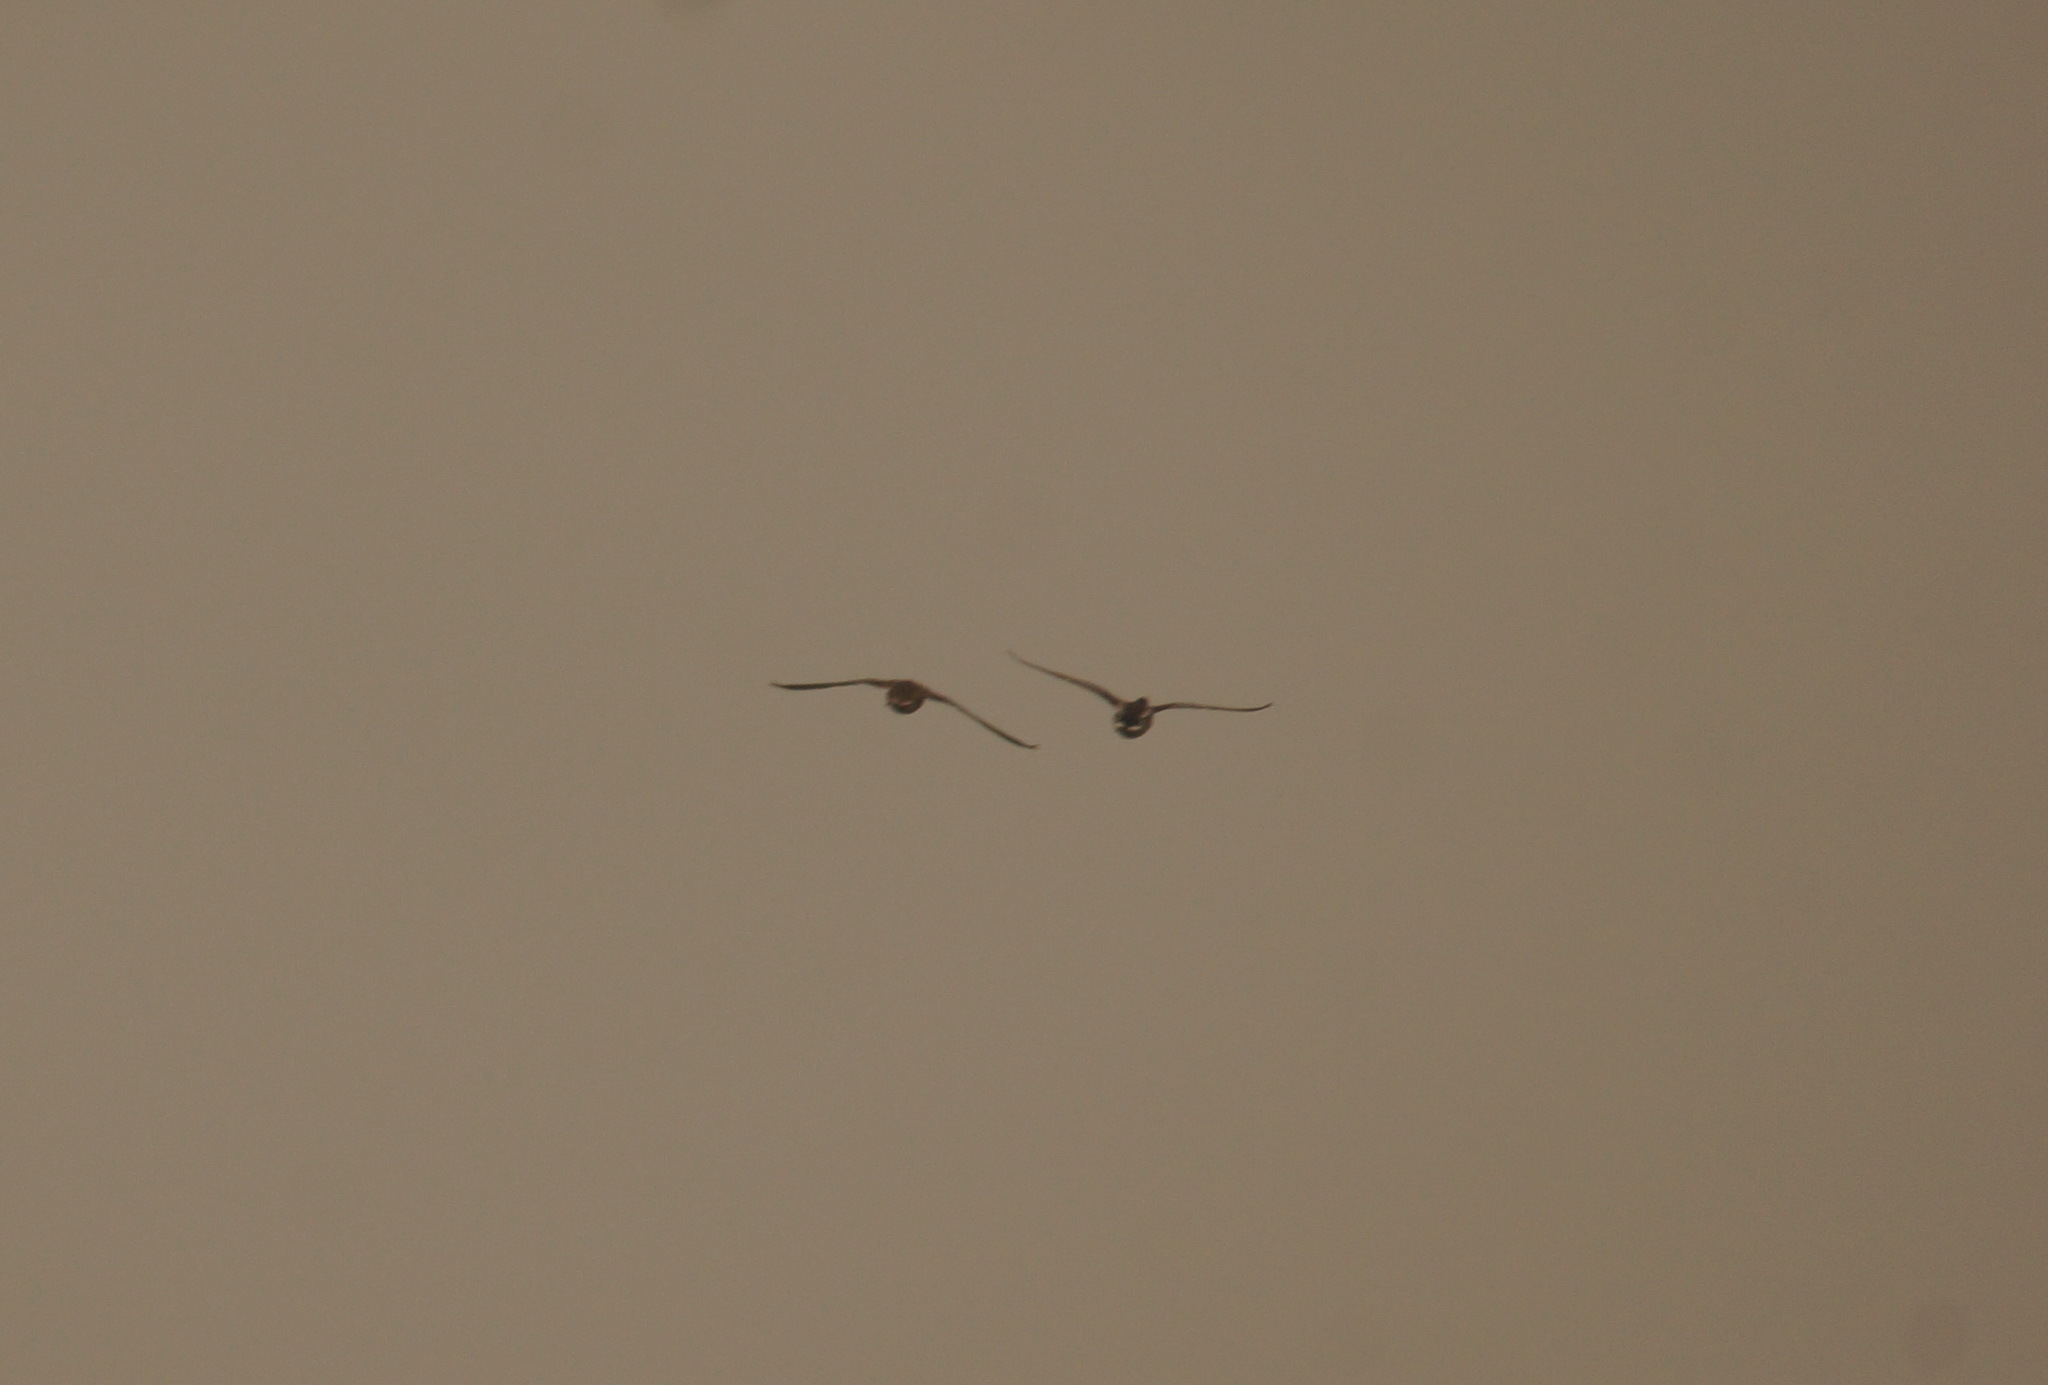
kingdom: Animalia
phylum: Chordata
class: Aves
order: Anseriformes
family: Anatidae
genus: Anas
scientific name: Anas platyrhynchos
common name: Mallard
